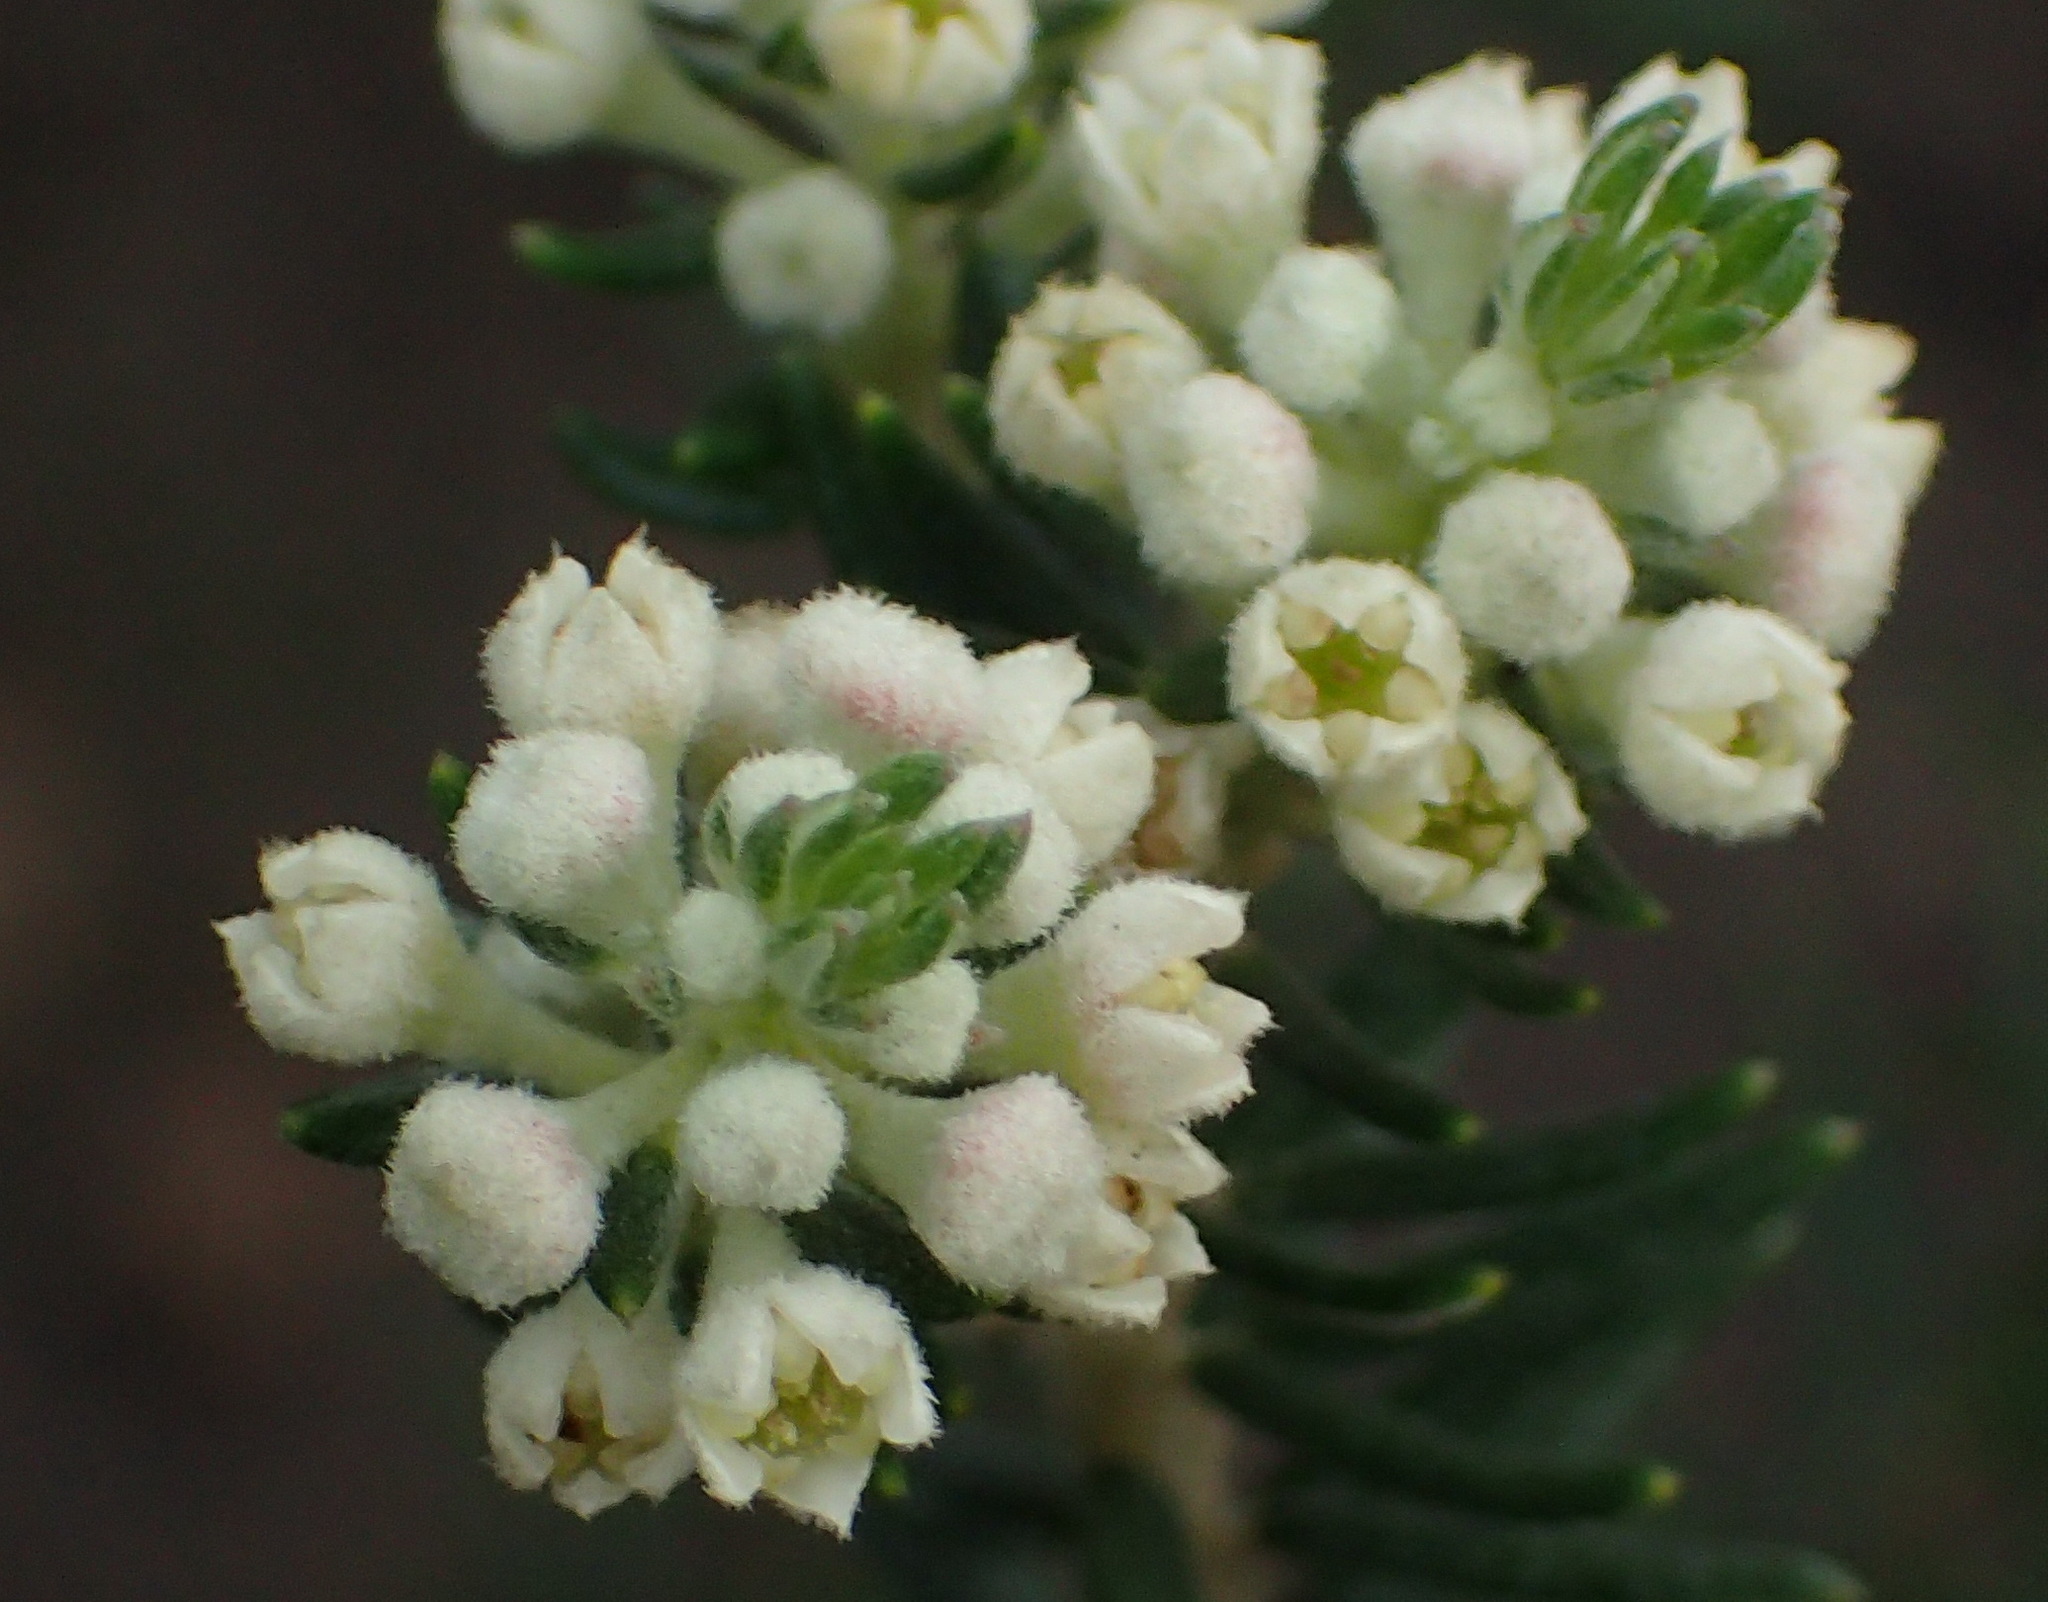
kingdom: Plantae
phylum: Tracheophyta
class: Magnoliopsida
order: Rosales
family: Rhamnaceae
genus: Phylica
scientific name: Phylica axillaris
